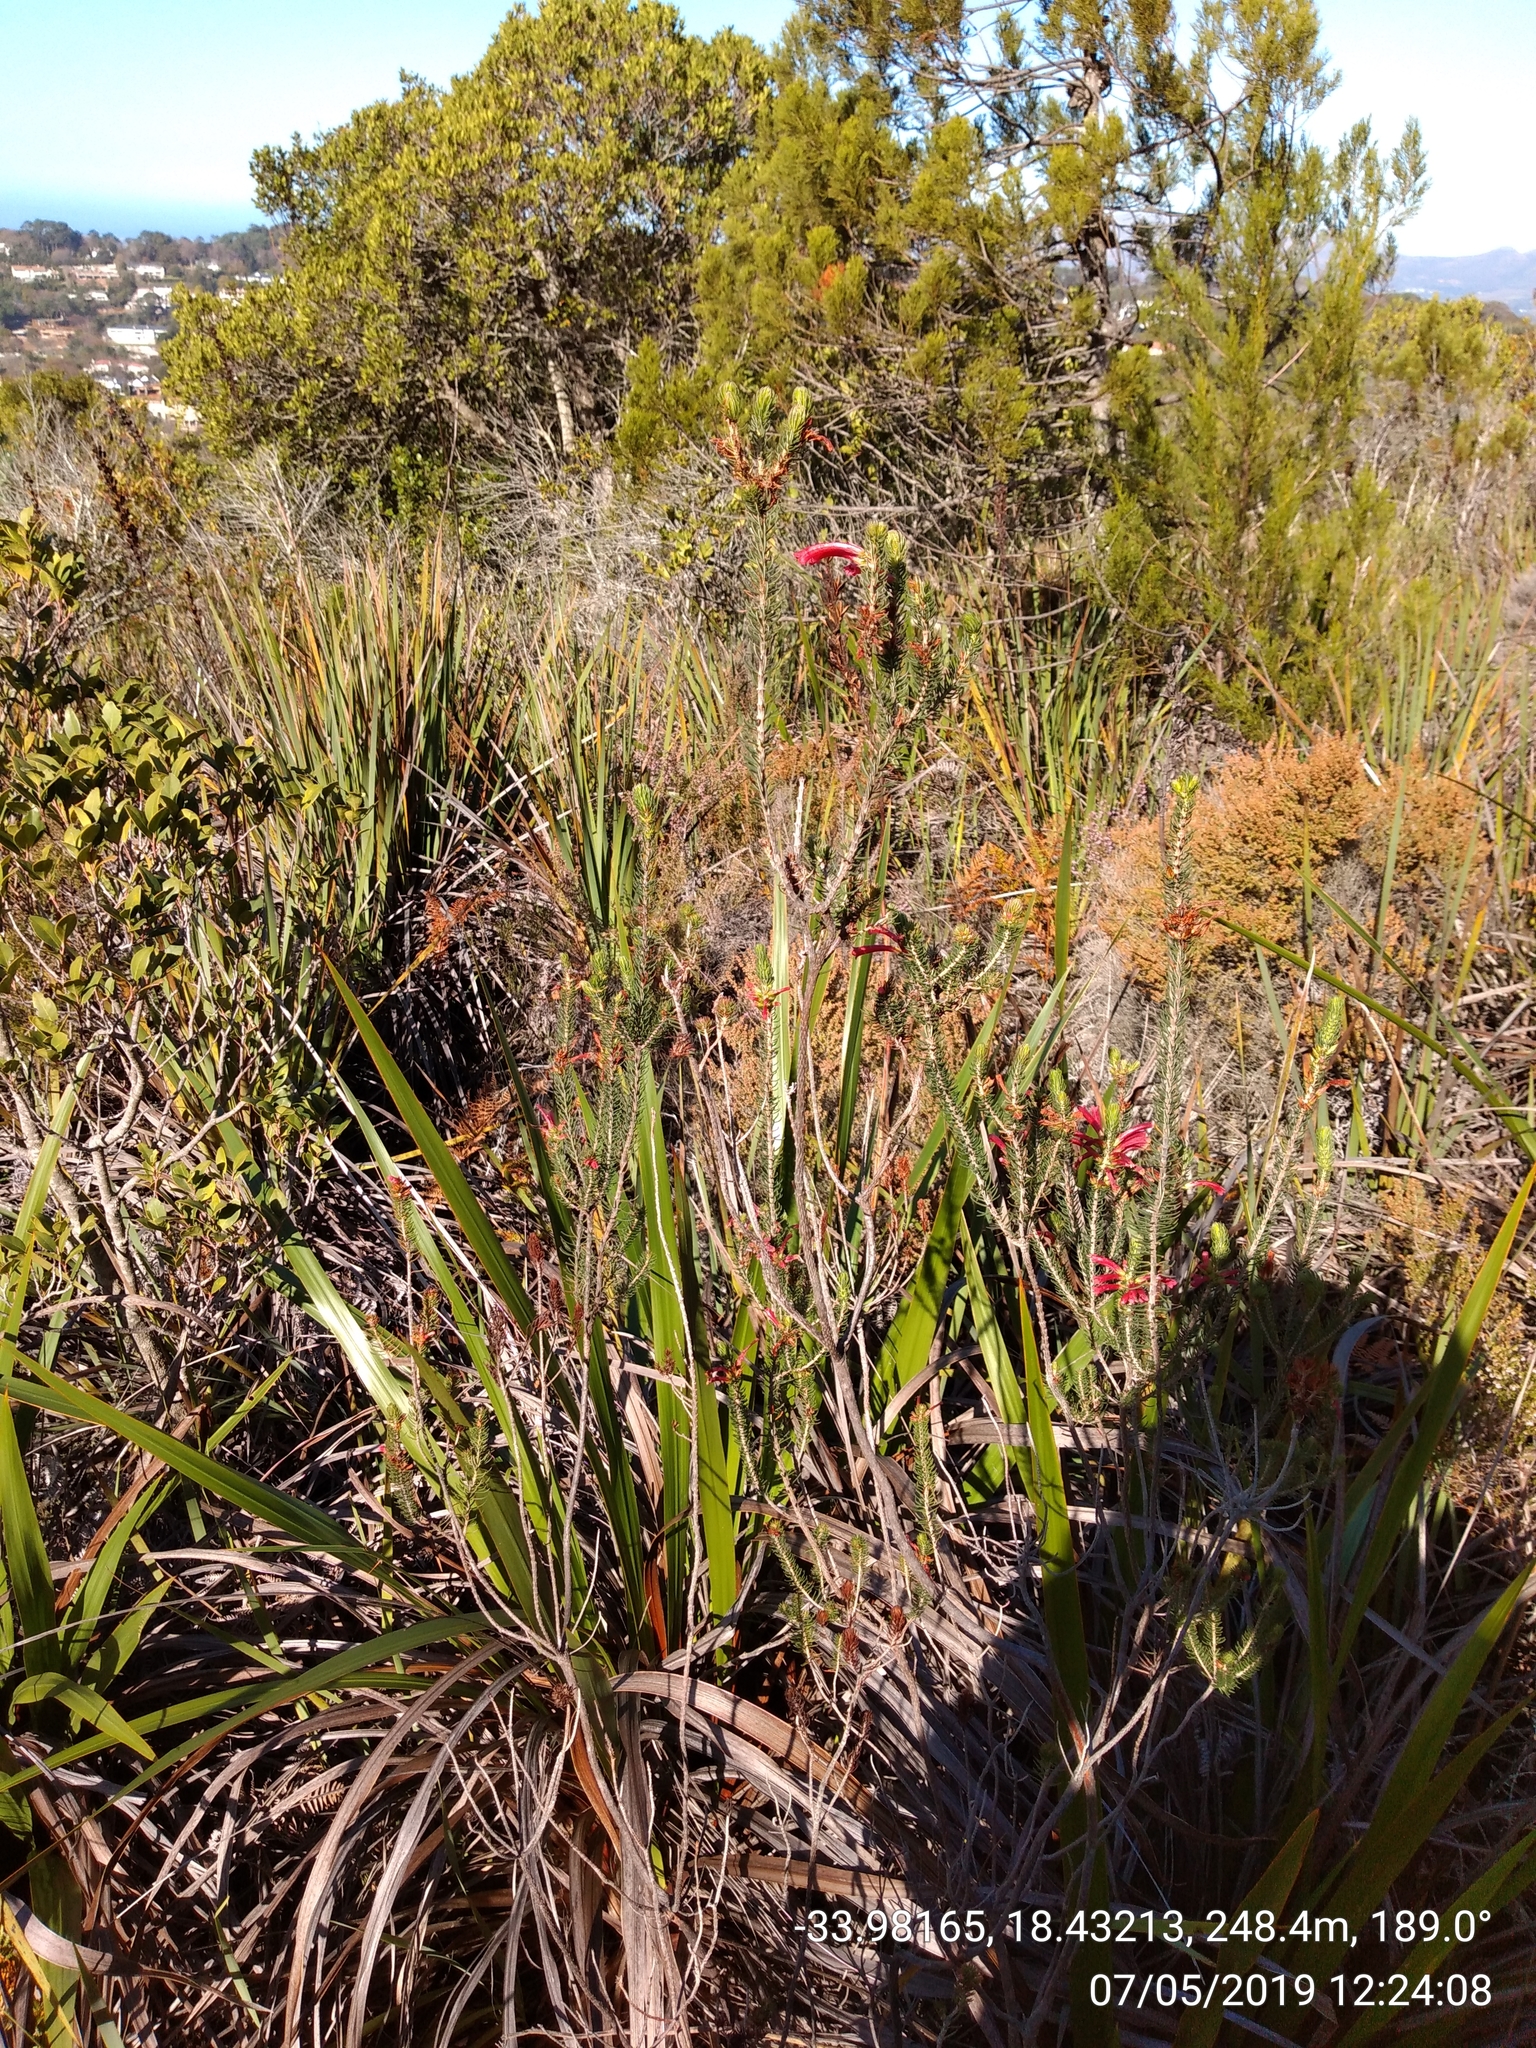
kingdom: Plantae
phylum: Tracheophyta
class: Magnoliopsida
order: Ericales
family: Ericaceae
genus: Erica
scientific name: Erica abietina
